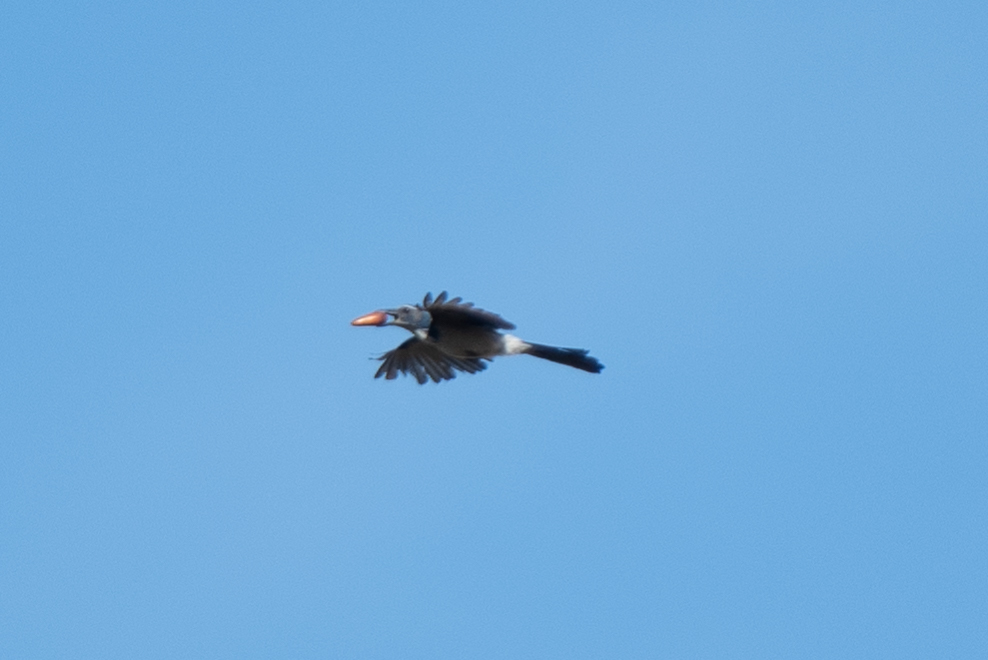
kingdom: Animalia
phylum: Chordata
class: Aves
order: Passeriformes
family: Corvidae
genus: Aphelocoma
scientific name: Aphelocoma californica
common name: California scrub-jay
